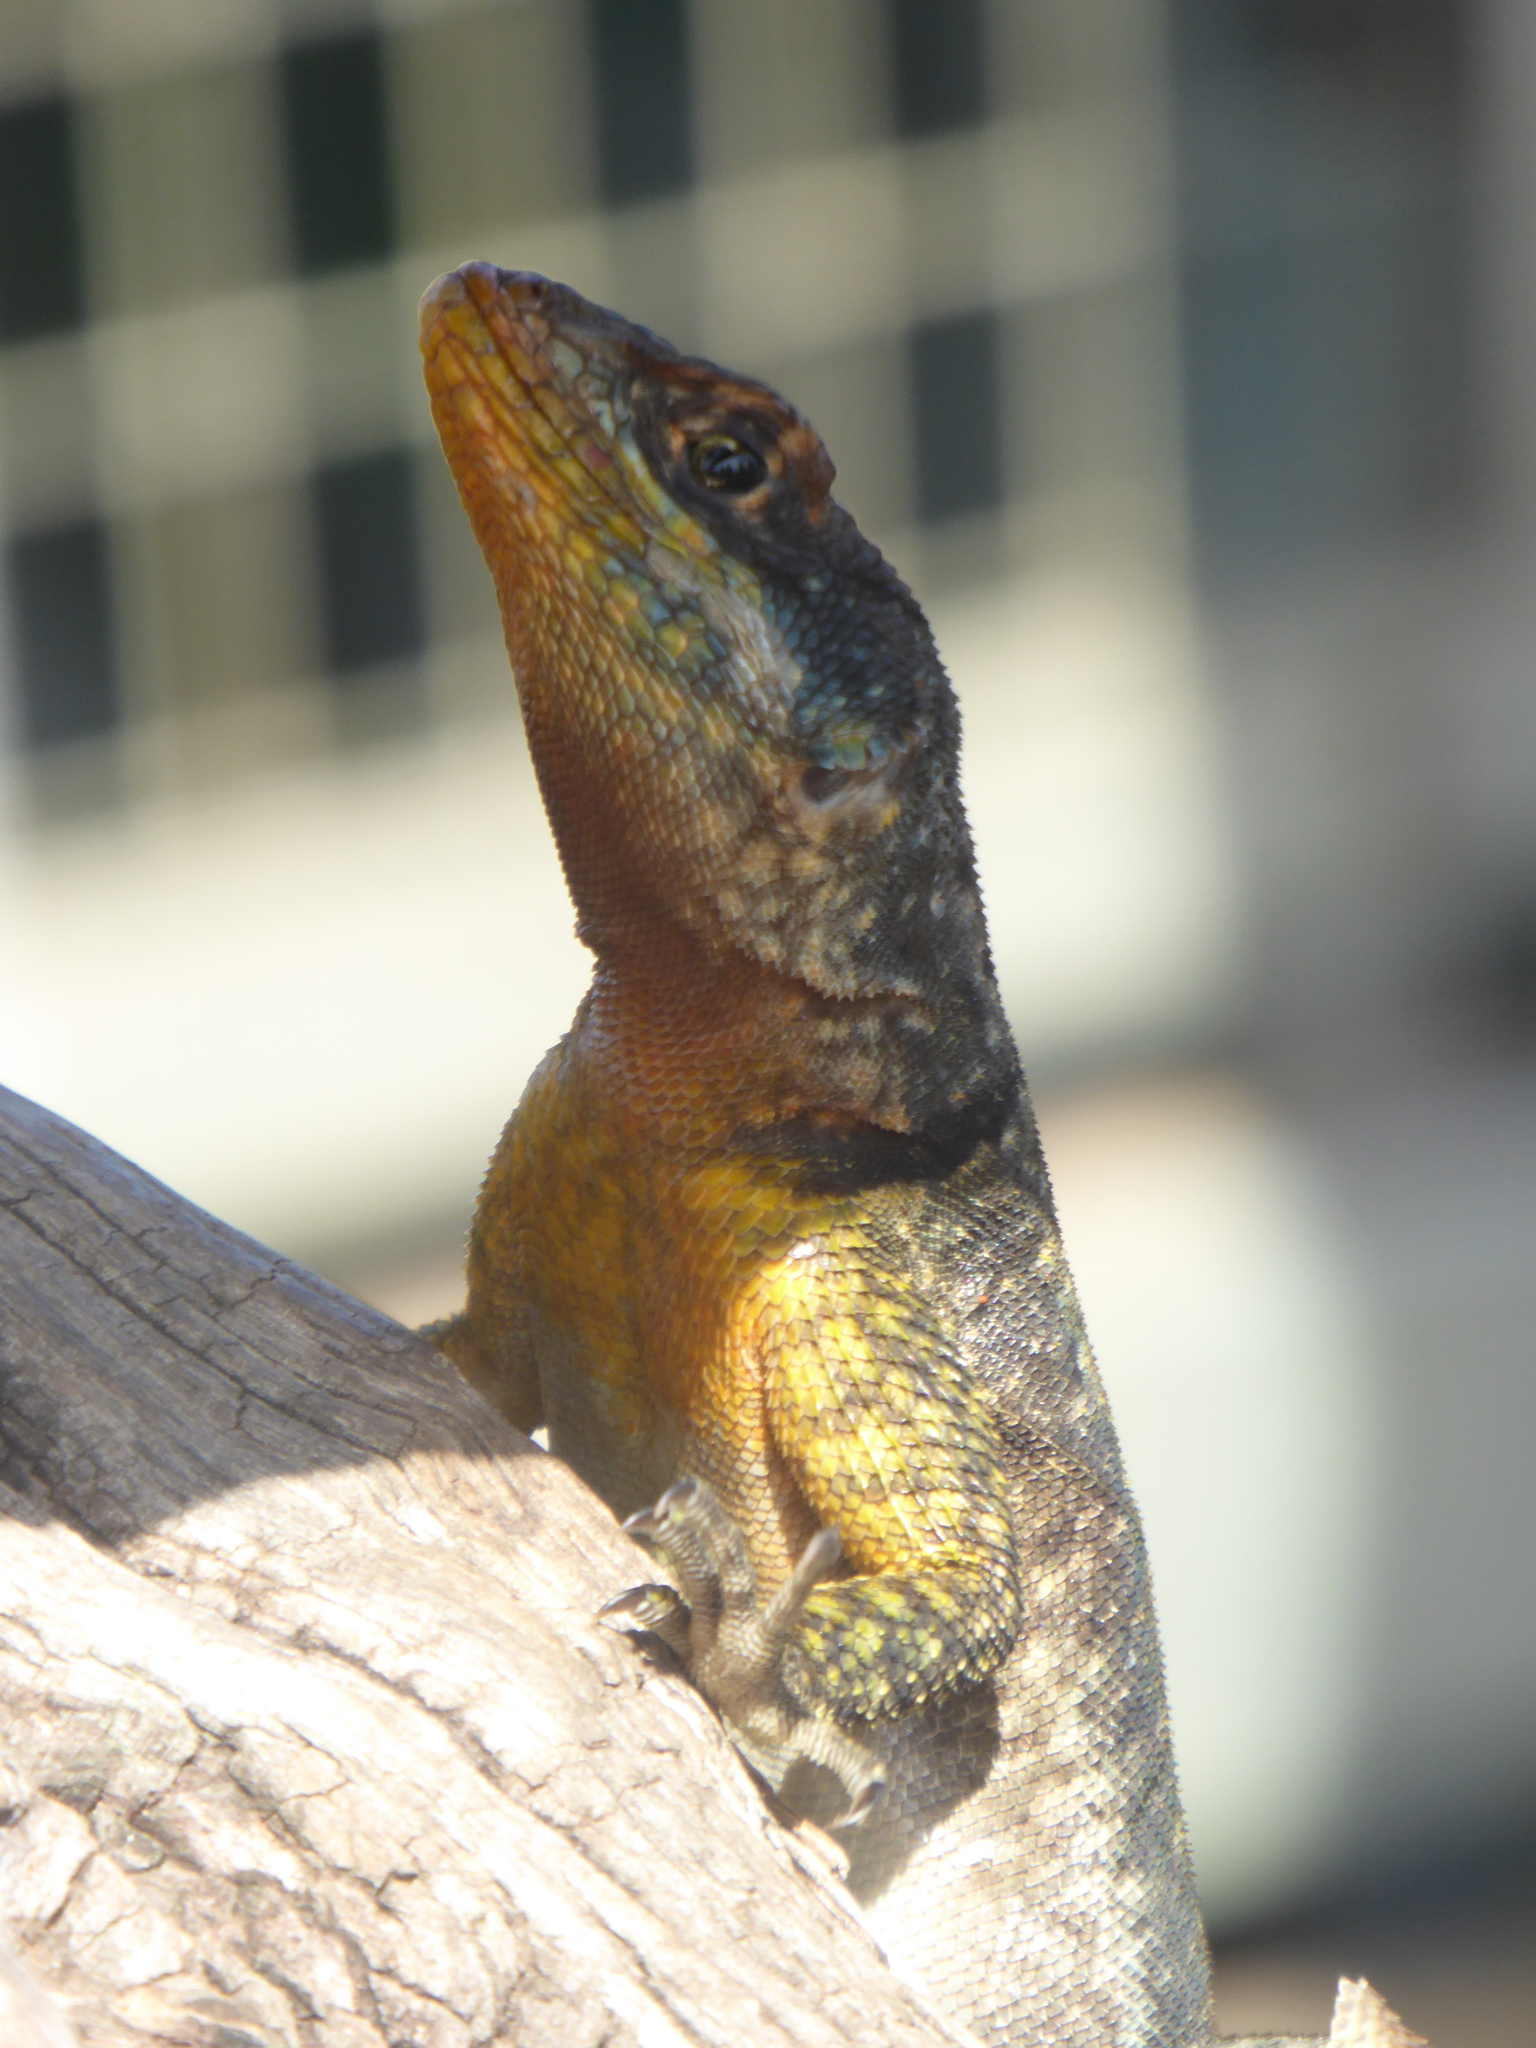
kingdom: Animalia
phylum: Chordata
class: Squamata
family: Tropiduridae
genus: Tropidurus
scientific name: Tropidurus catalanensis
